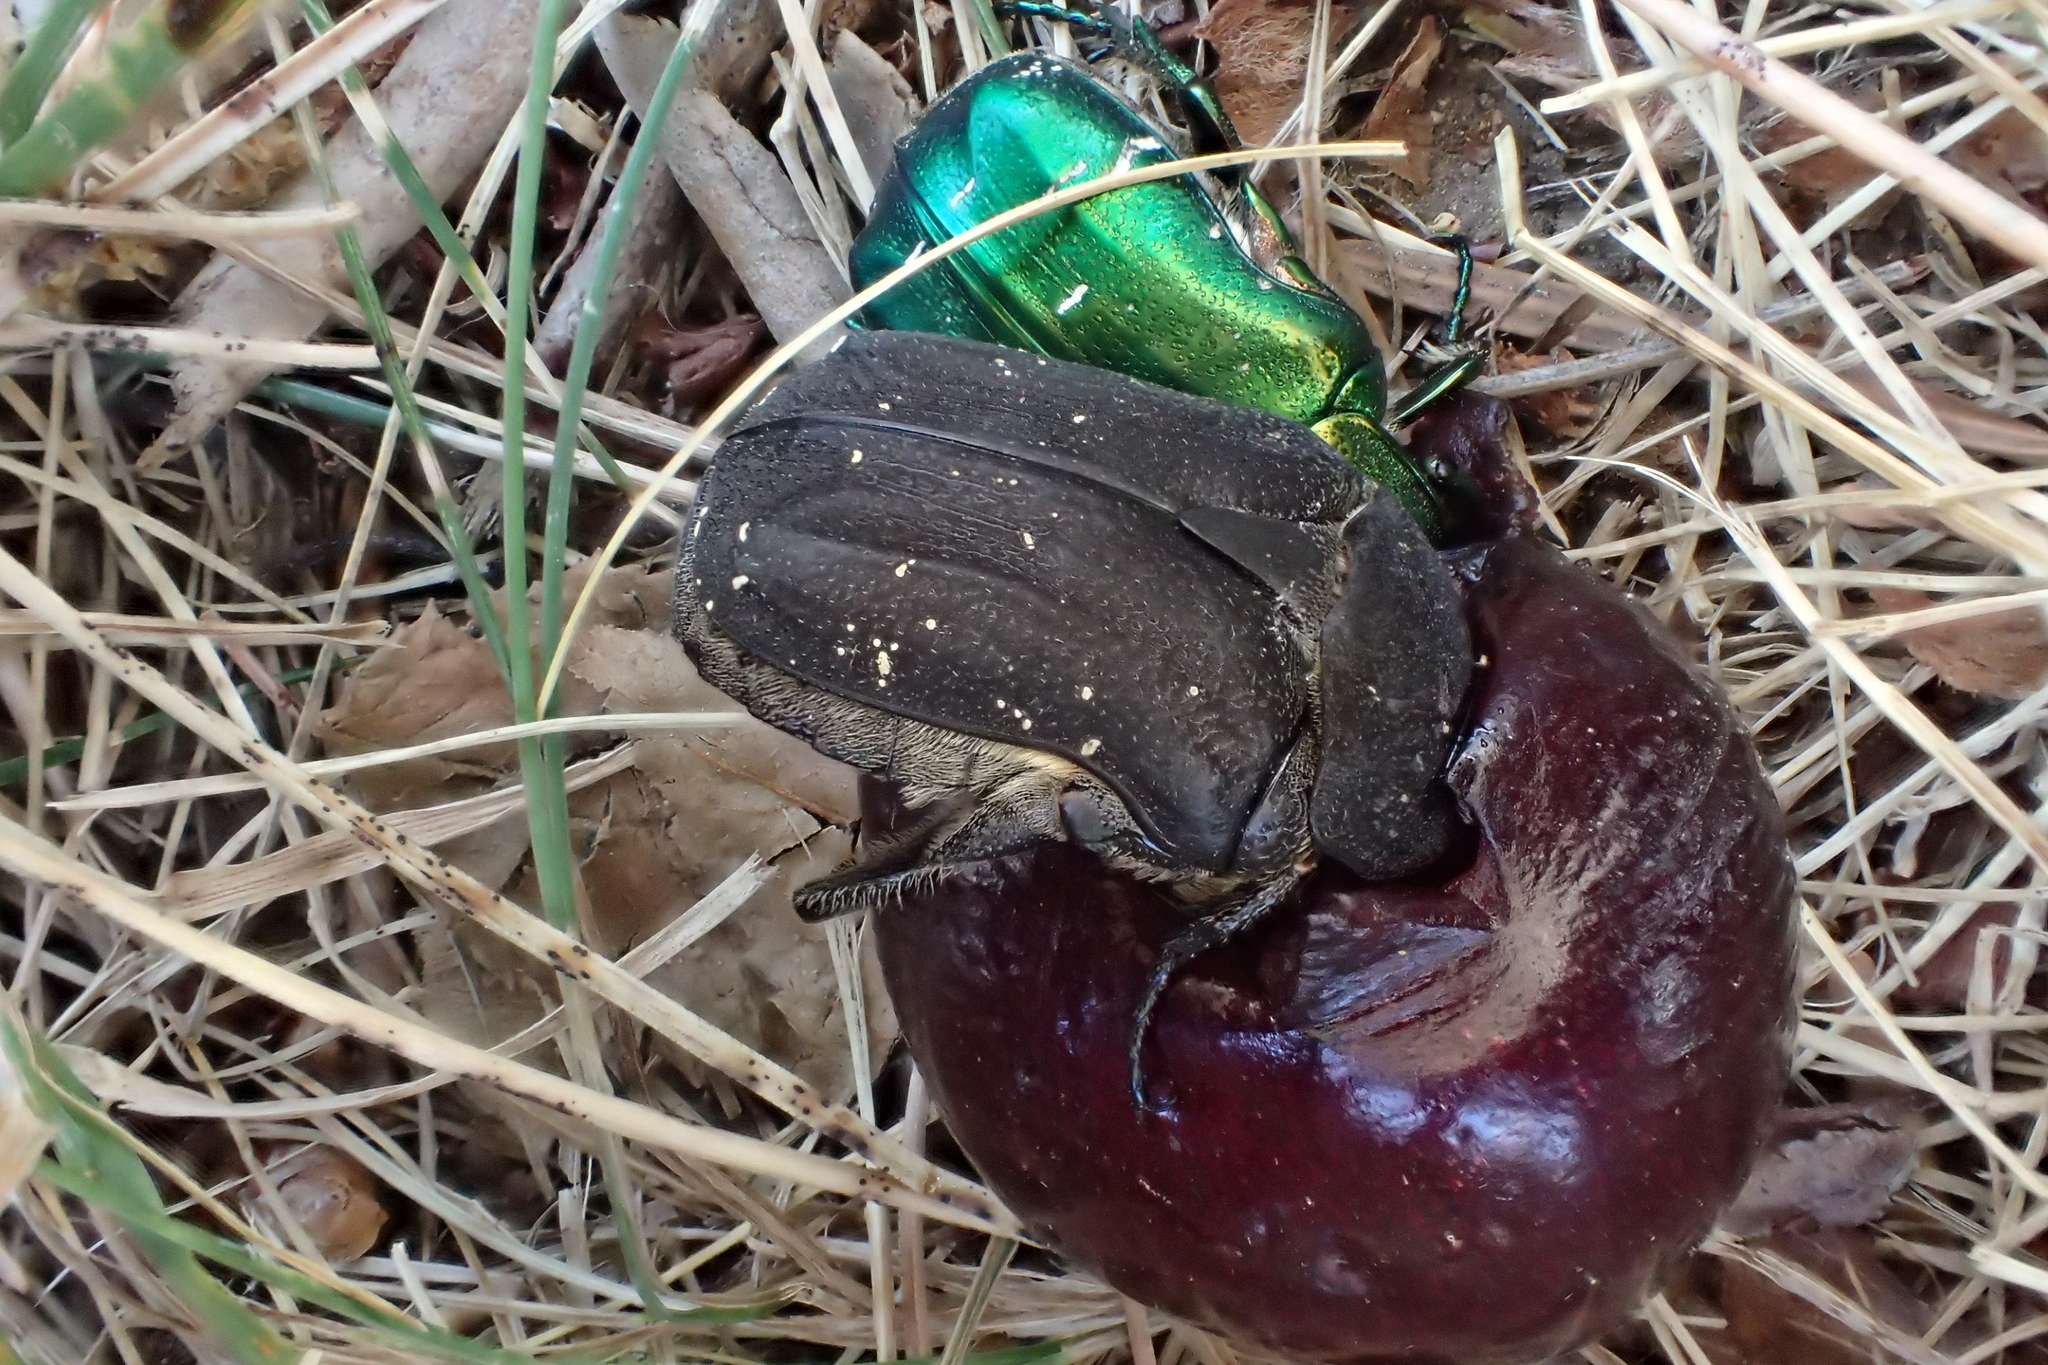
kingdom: Animalia
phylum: Arthropoda
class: Insecta
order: Coleoptera
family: Scarabaeidae
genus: Protaetia
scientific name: Protaetia morio
